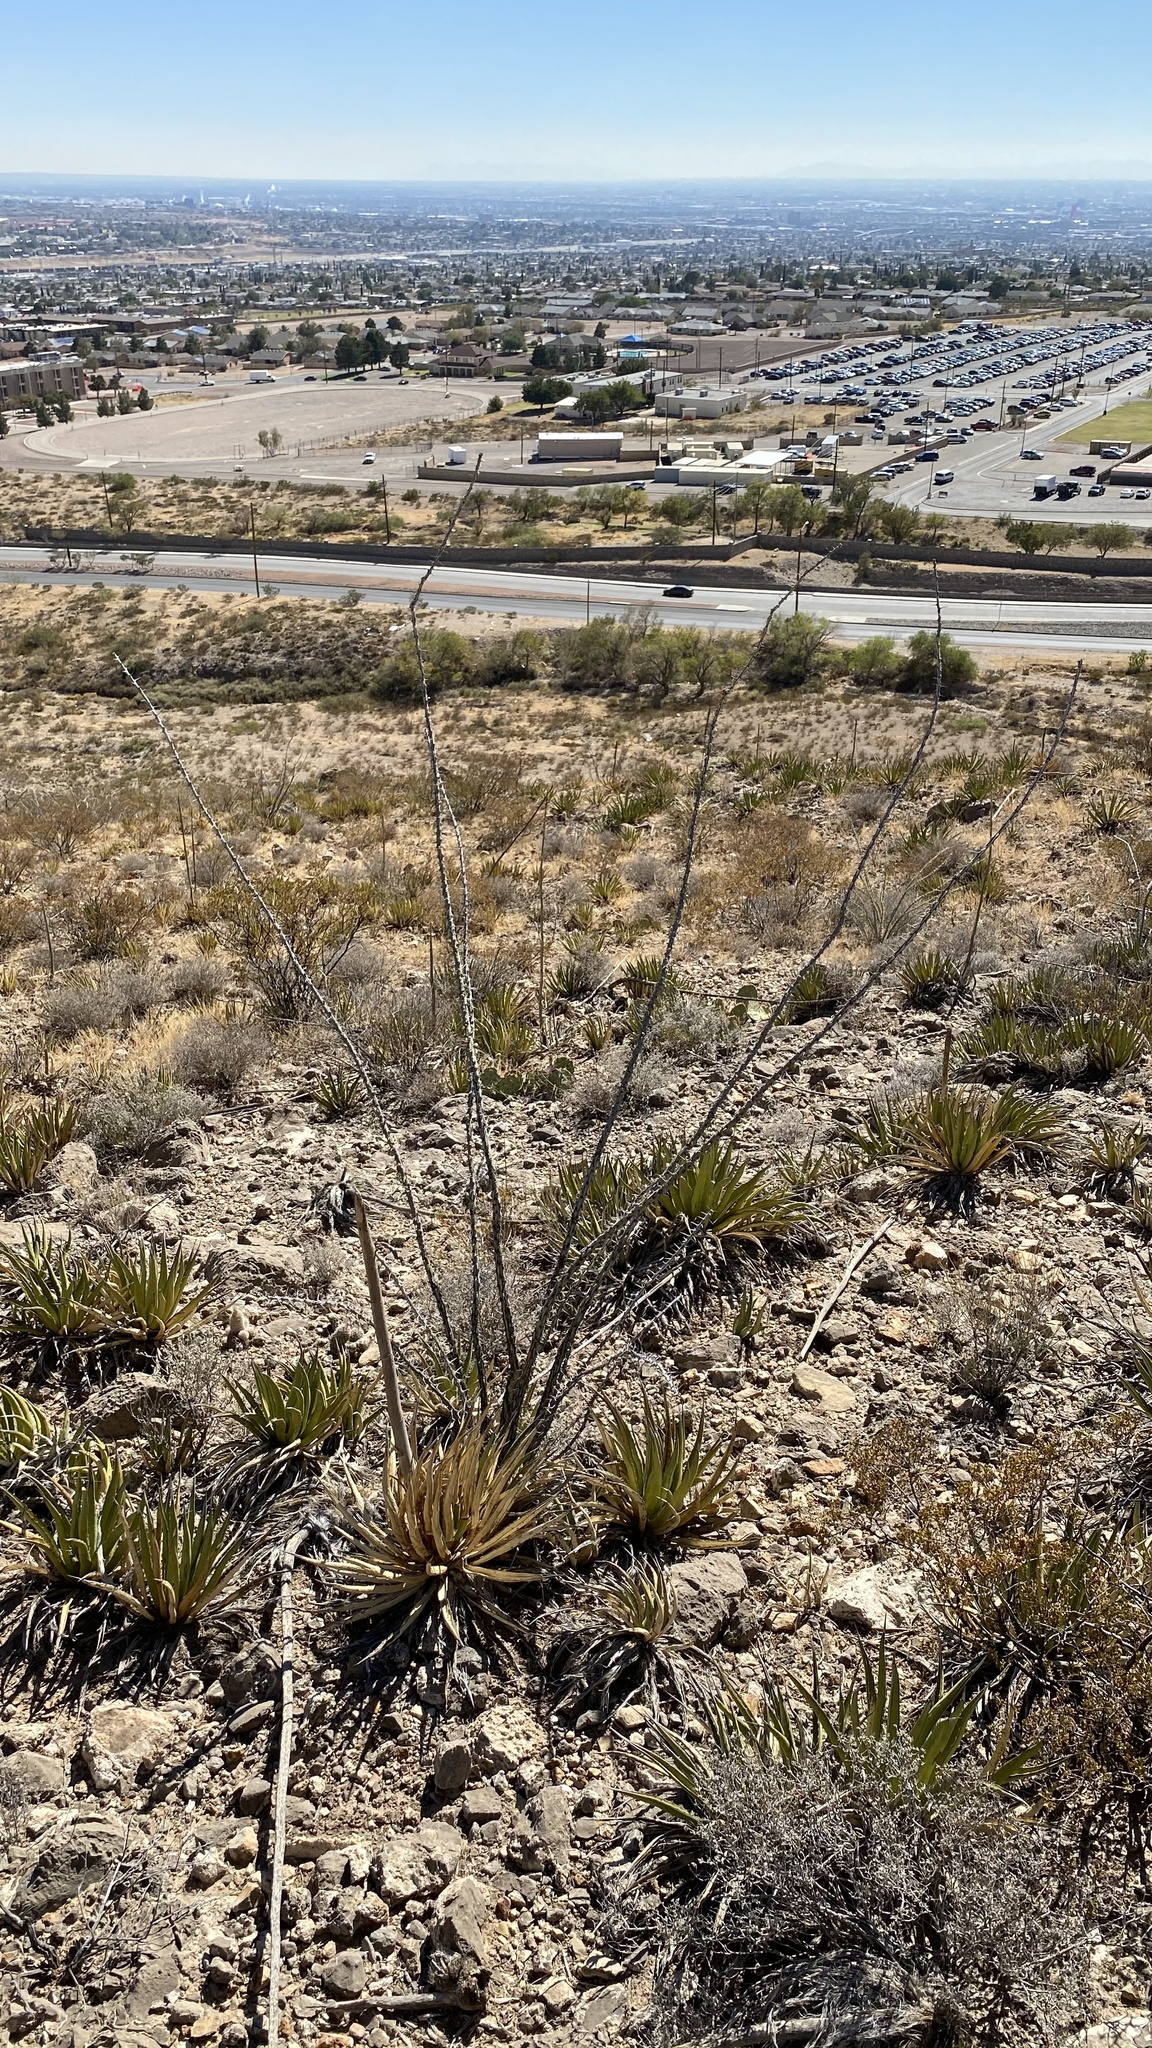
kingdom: Plantae
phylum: Tracheophyta
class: Magnoliopsida
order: Ericales
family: Fouquieriaceae
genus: Fouquieria
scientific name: Fouquieria splendens
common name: Vine-cactus
